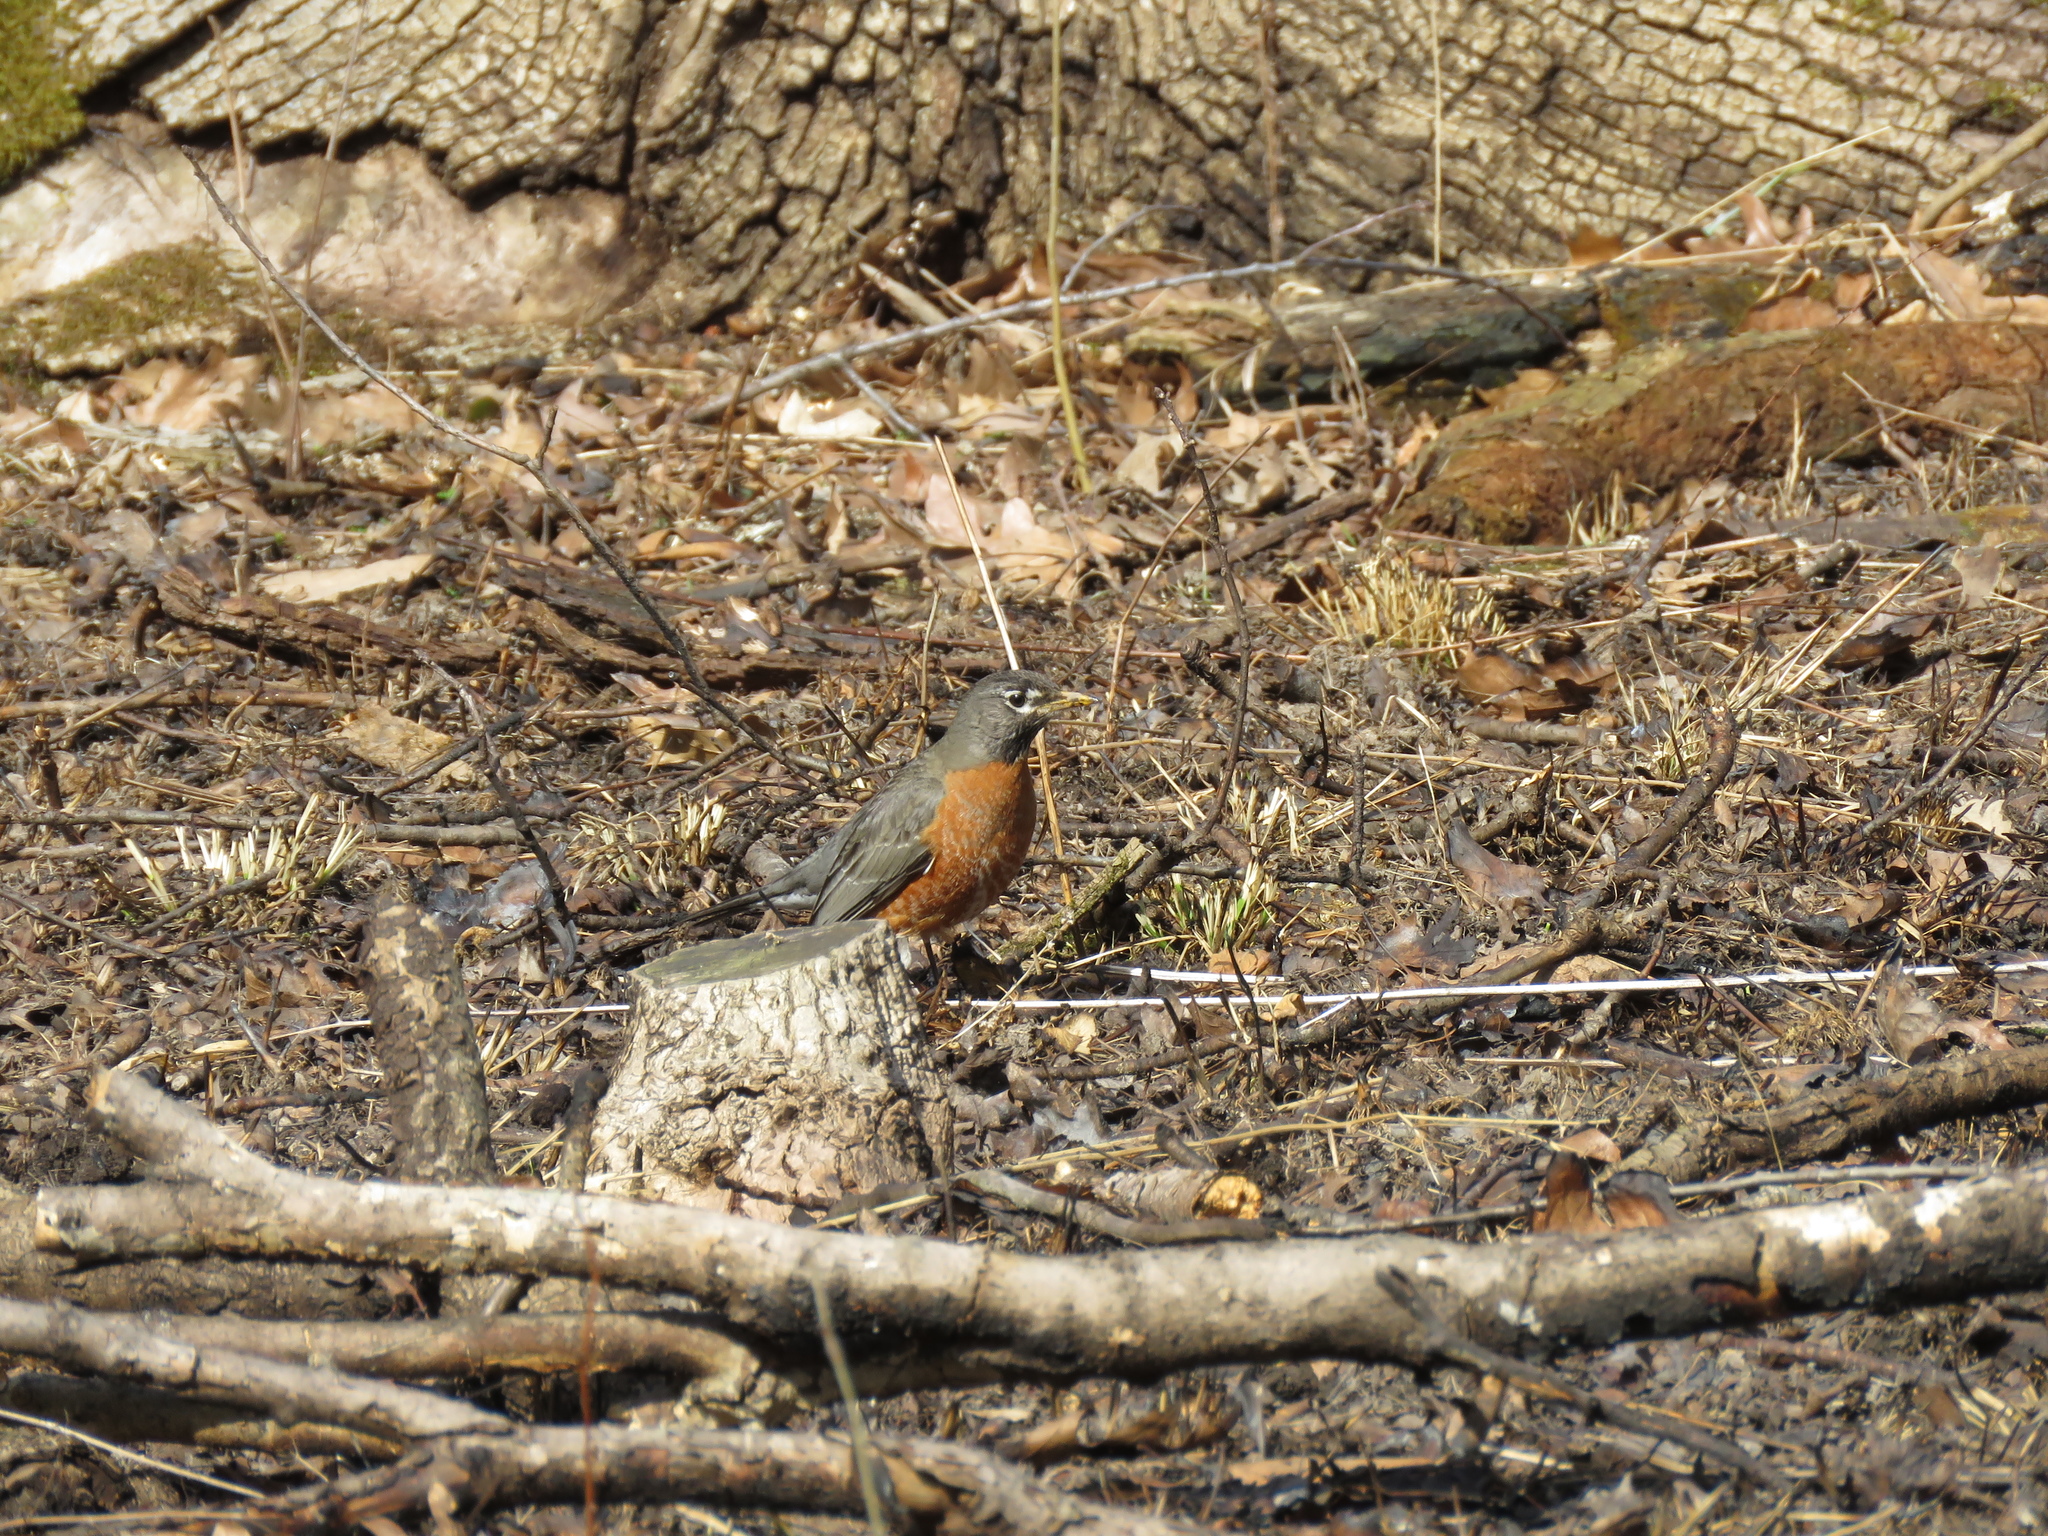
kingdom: Animalia
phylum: Chordata
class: Aves
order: Passeriformes
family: Turdidae
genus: Turdus
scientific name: Turdus migratorius
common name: American robin
